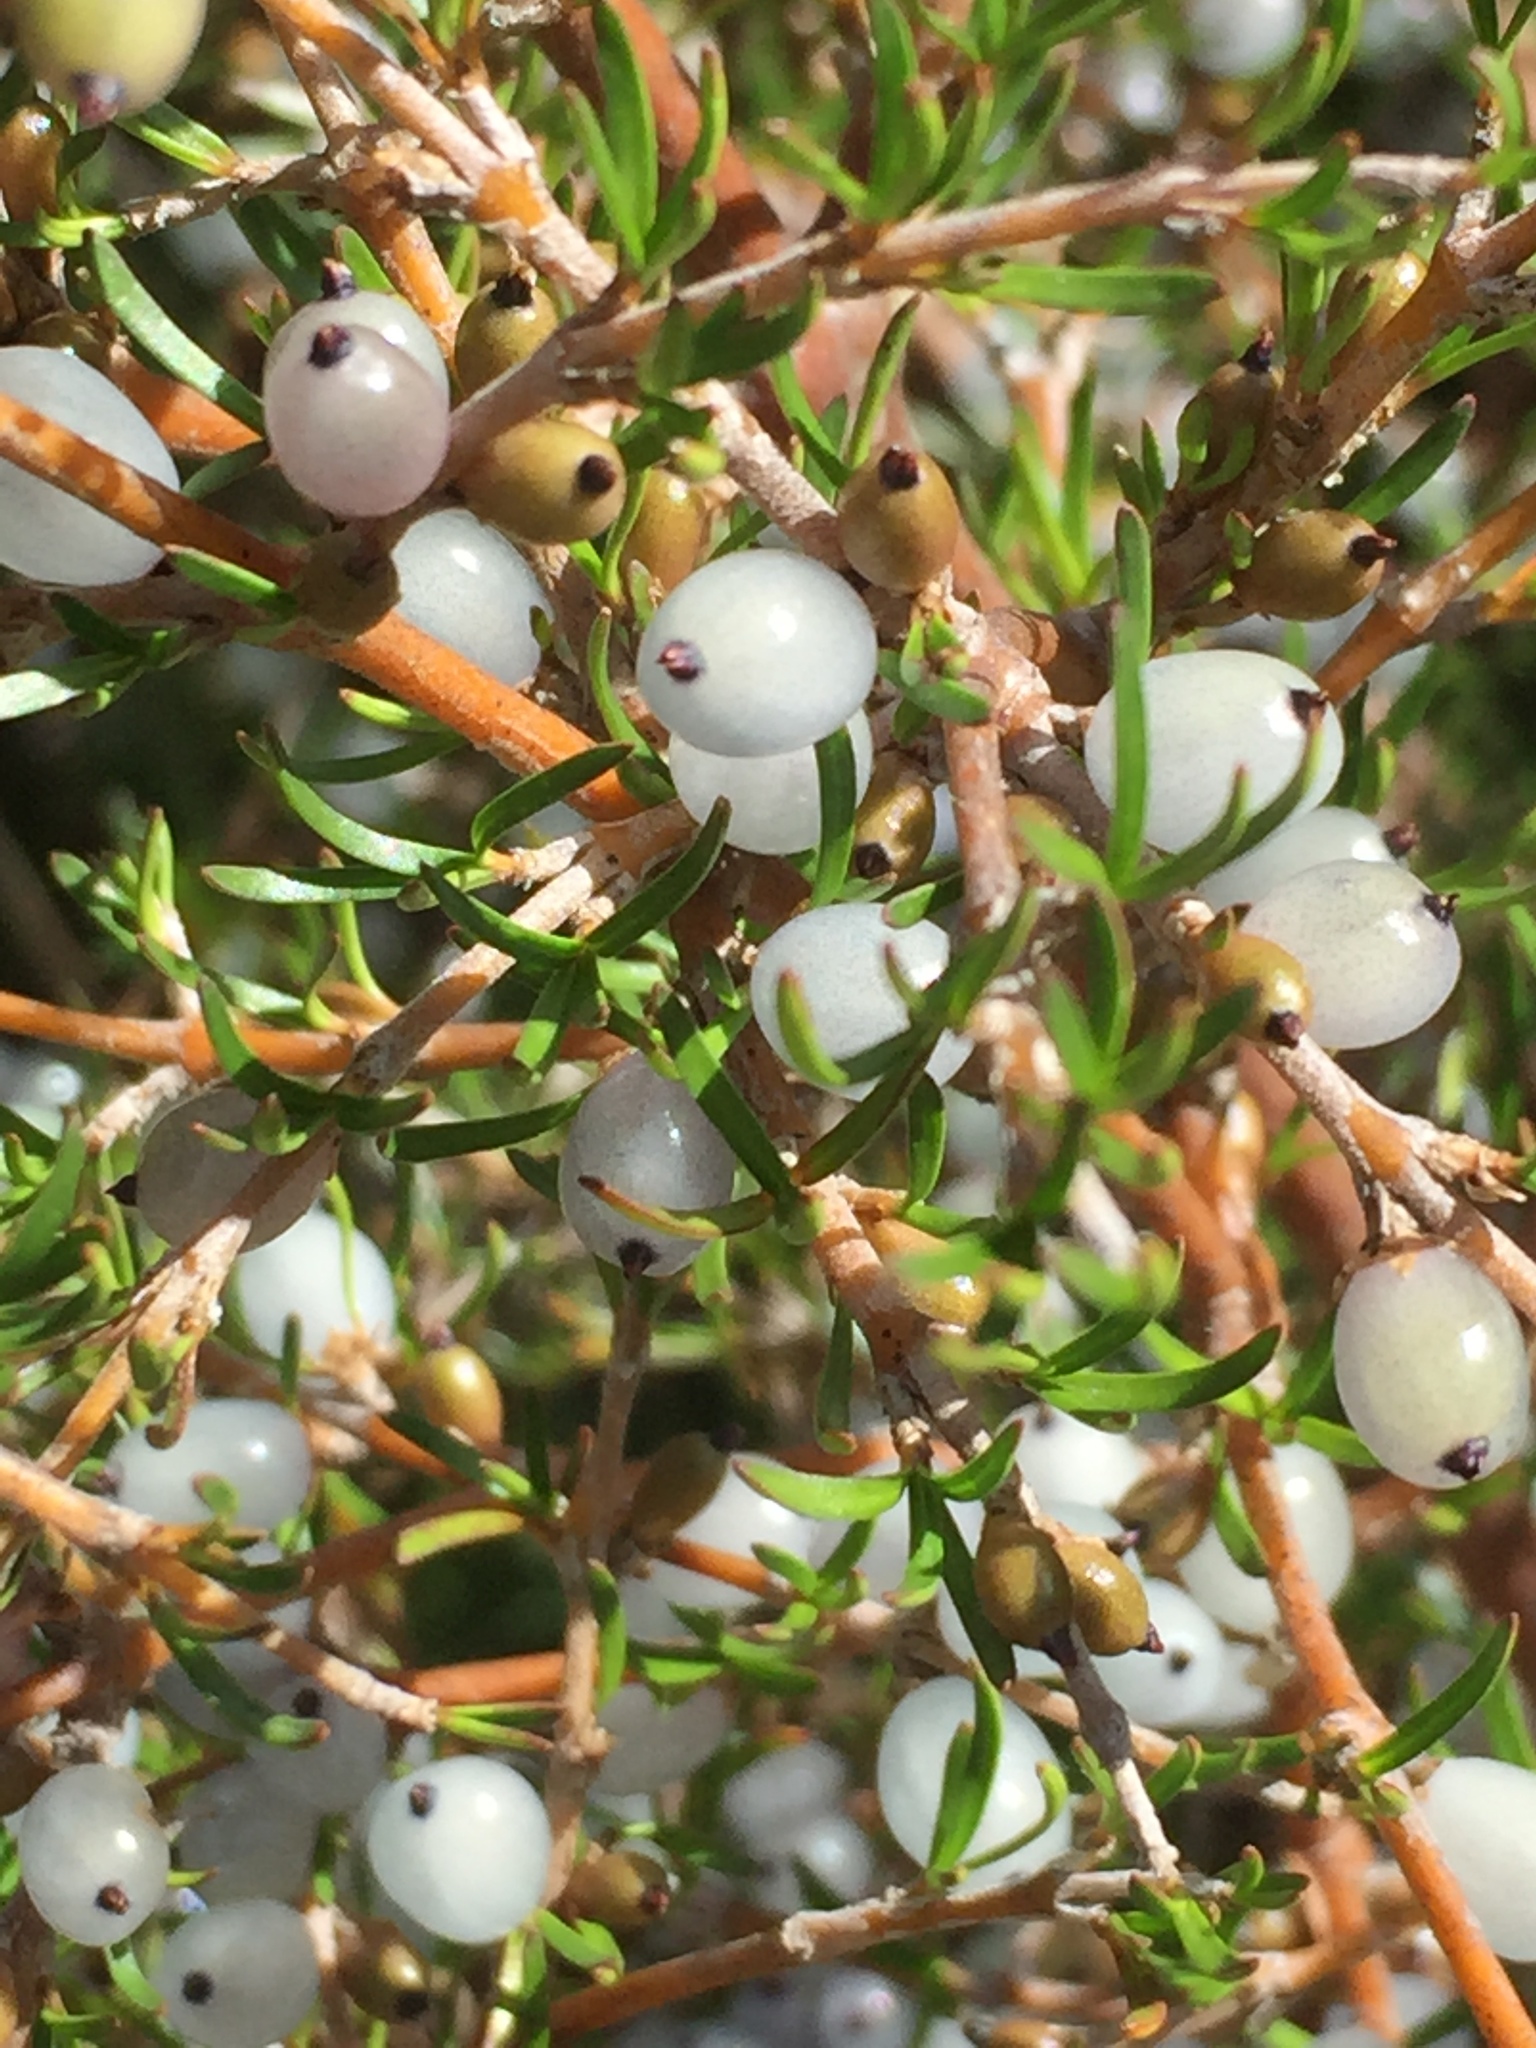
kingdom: Plantae
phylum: Tracheophyta
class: Magnoliopsida
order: Gentianales
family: Rubiaceae
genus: Coprosma
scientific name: Coprosma rugosa
